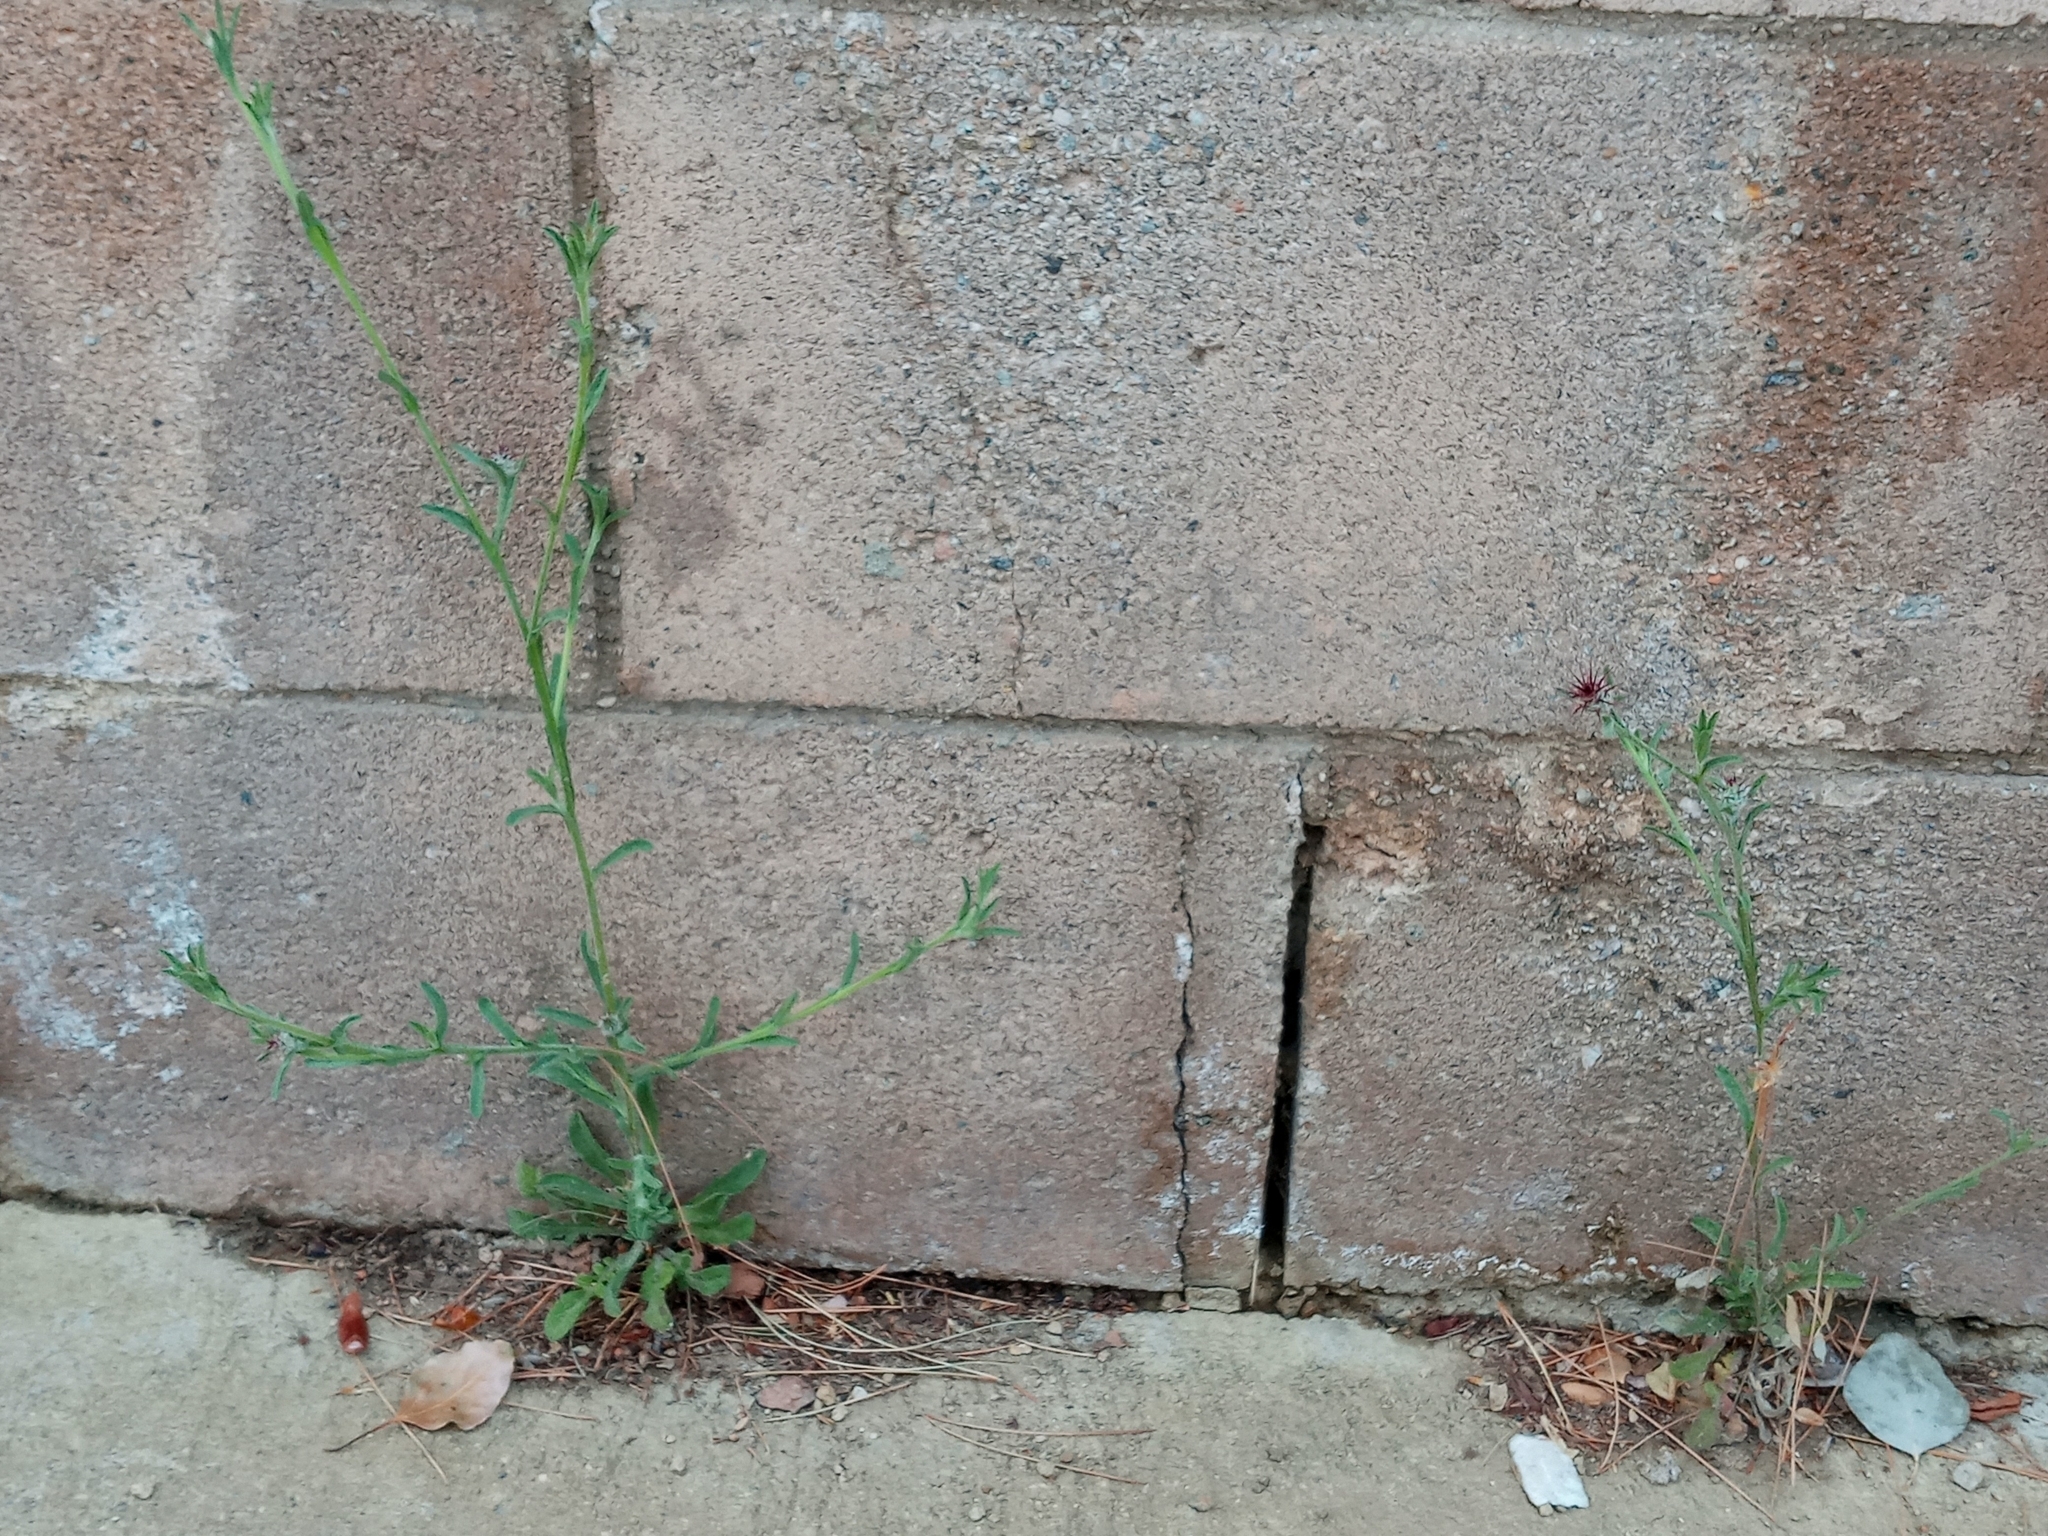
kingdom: Plantae
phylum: Tracheophyta
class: Magnoliopsida
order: Asterales
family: Asteraceae
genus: Centaurea
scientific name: Centaurea melitensis
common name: Maltese star-thistle
